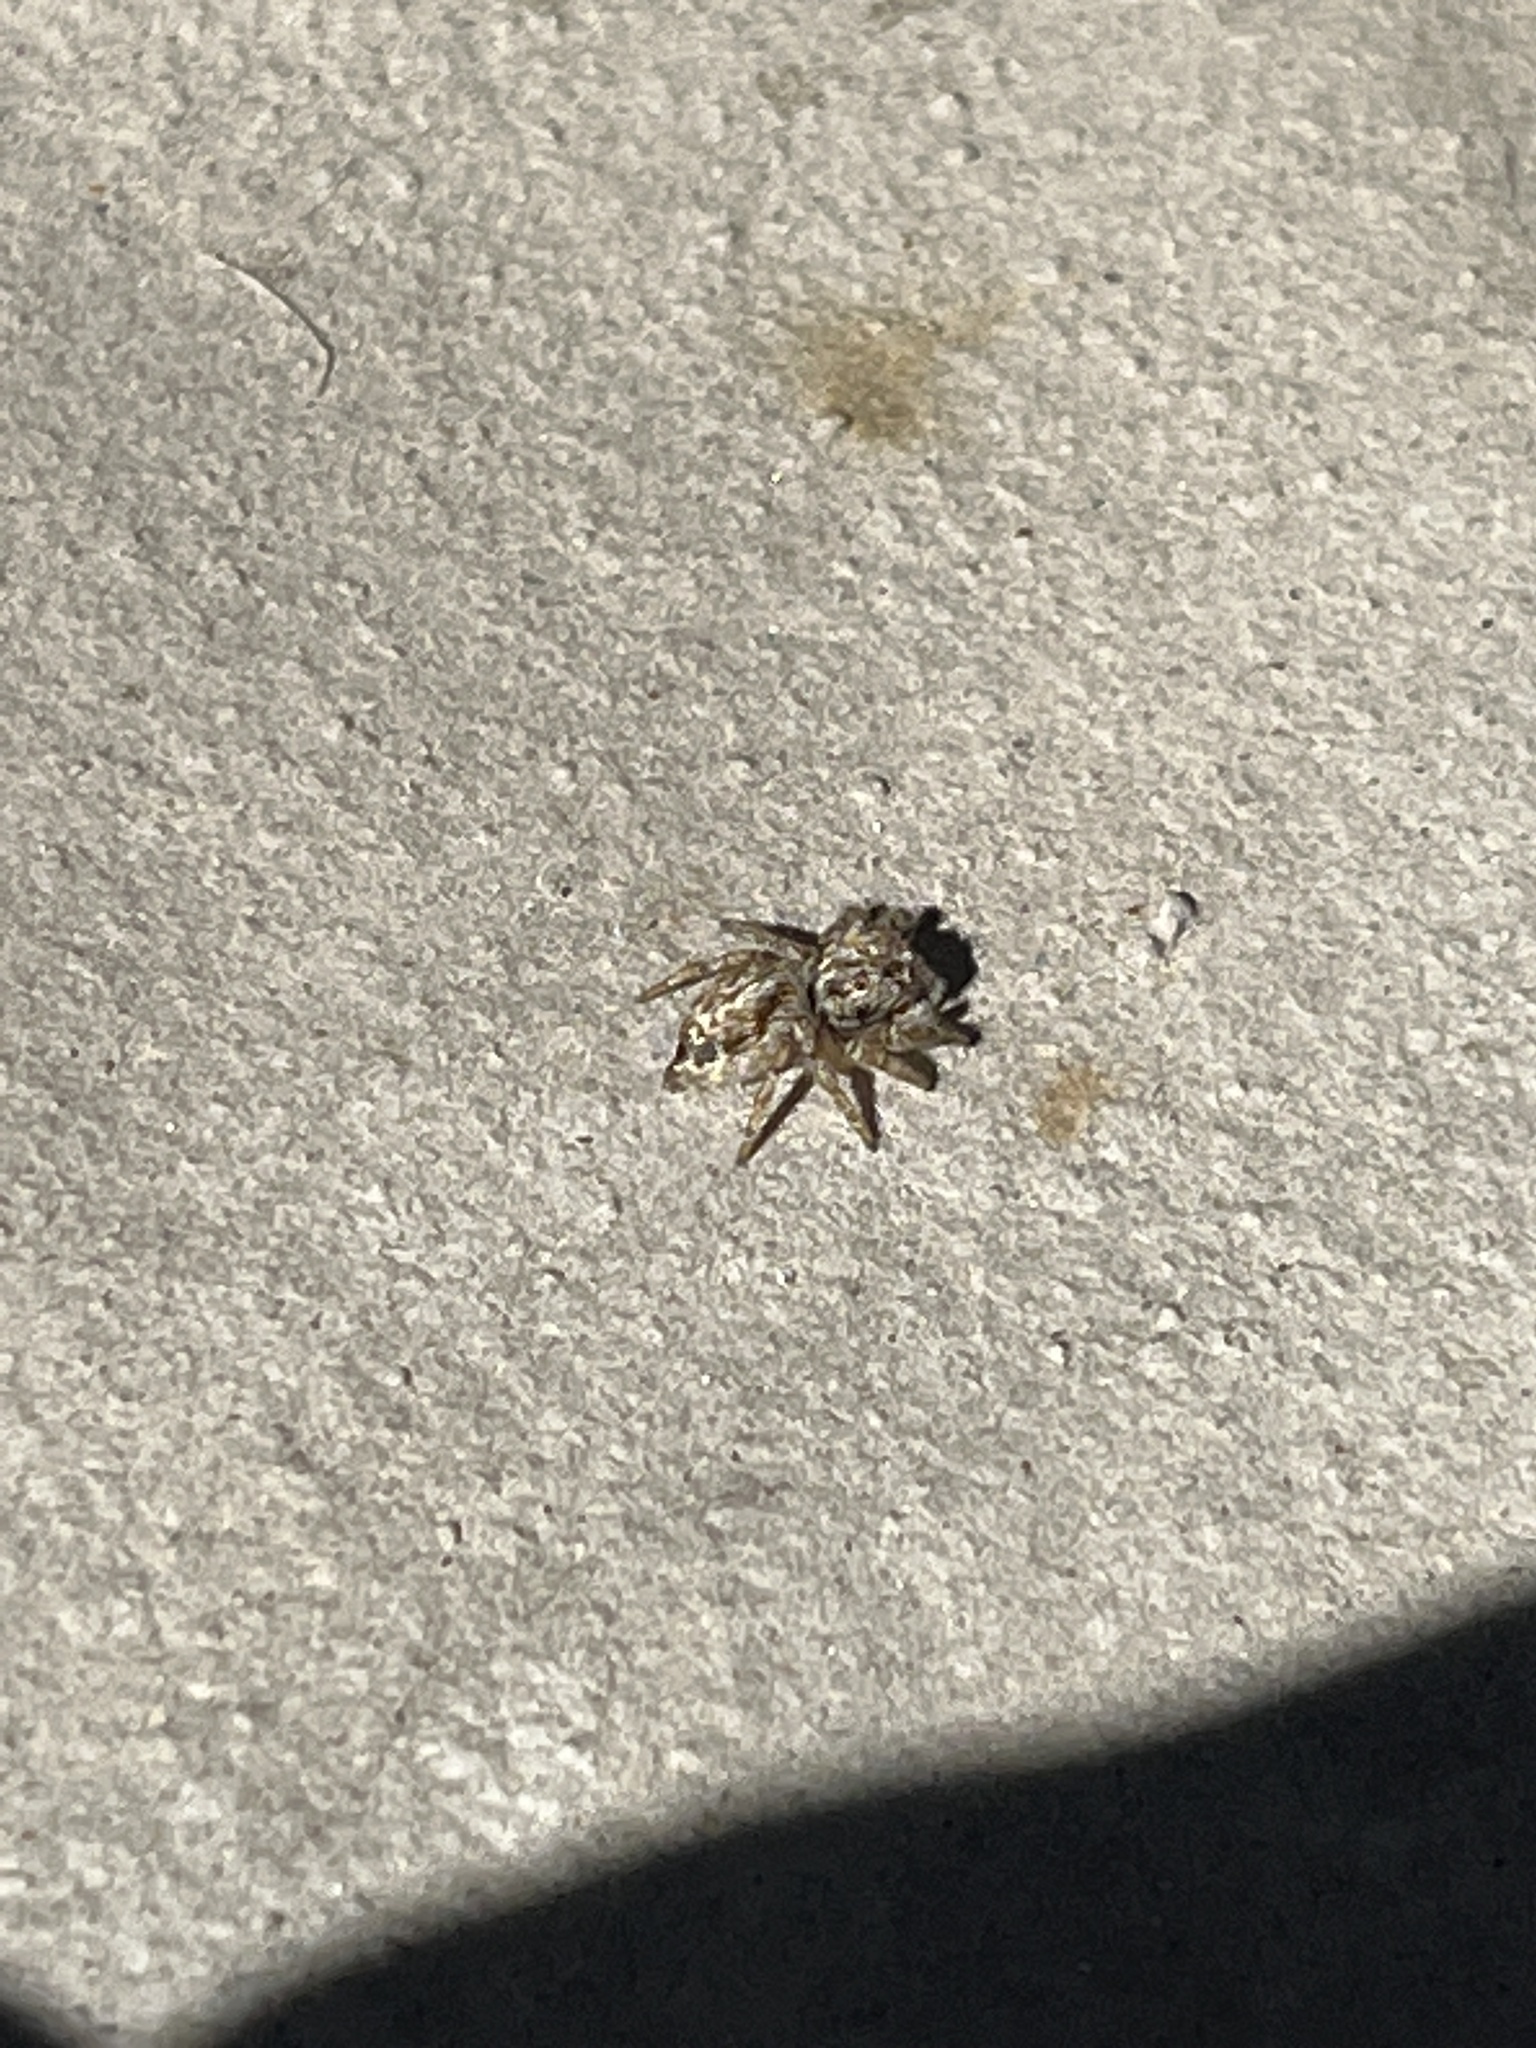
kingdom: Animalia
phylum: Arthropoda
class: Arachnida
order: Araneae
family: Salticidae
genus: Evarcha
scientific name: Evarcha nepos
